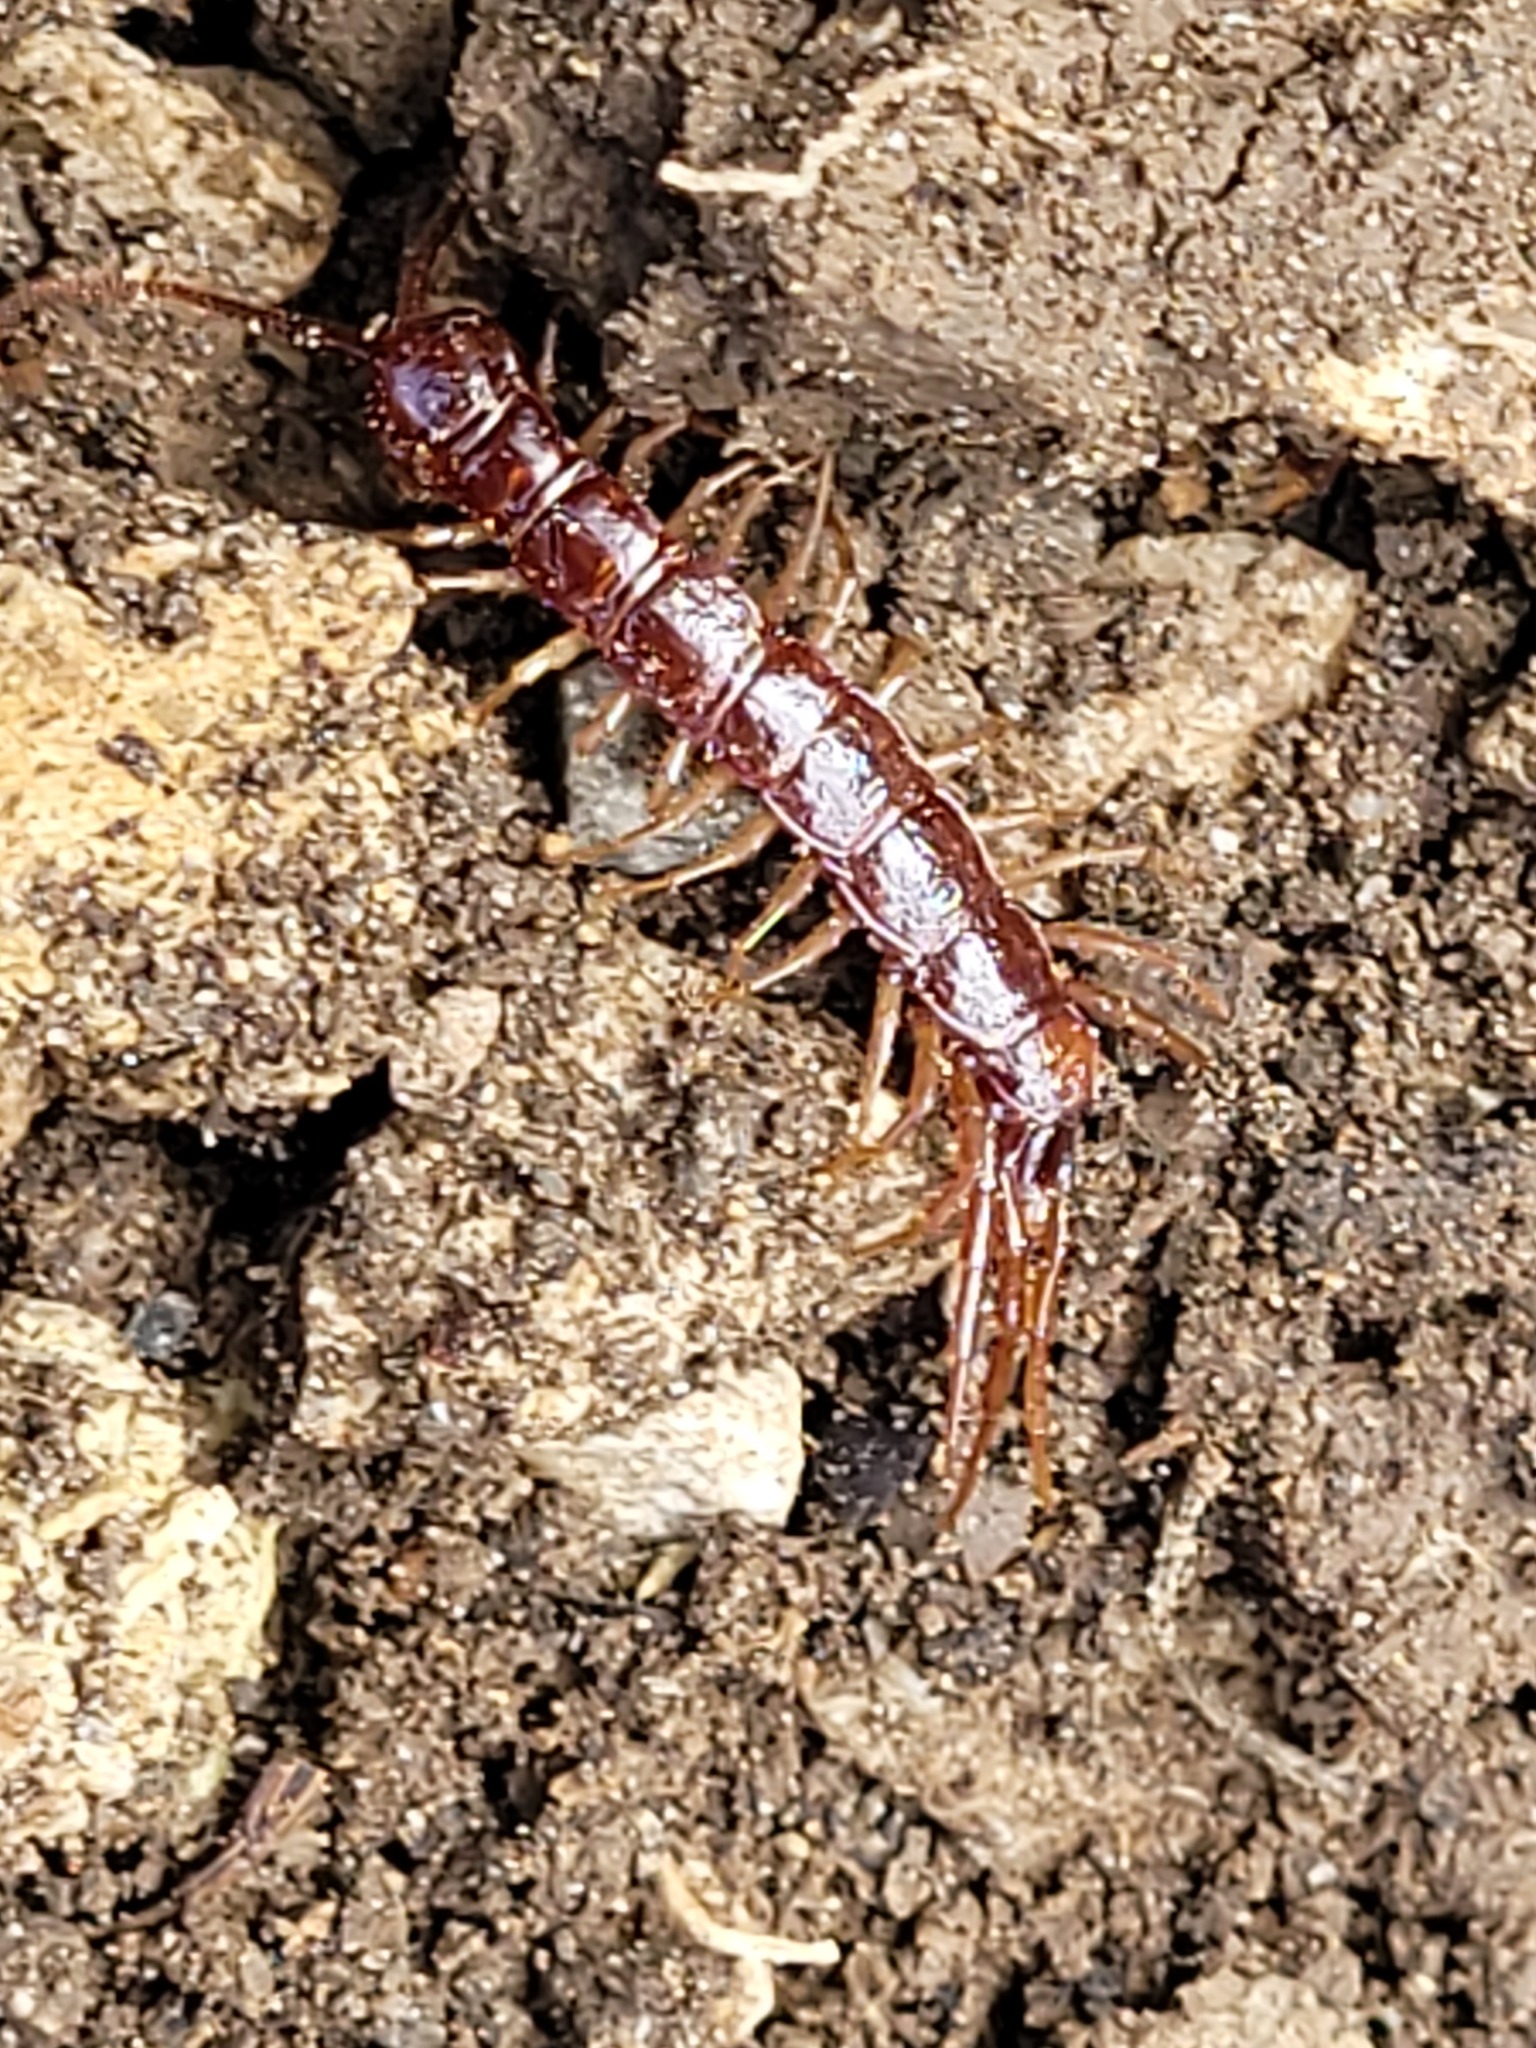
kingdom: Animalia
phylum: Arthropoda
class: Chilopoda
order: Lithobiomorpha
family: Lithobiidae
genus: Lithobius
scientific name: Lithobius forficatus
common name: Centipede
